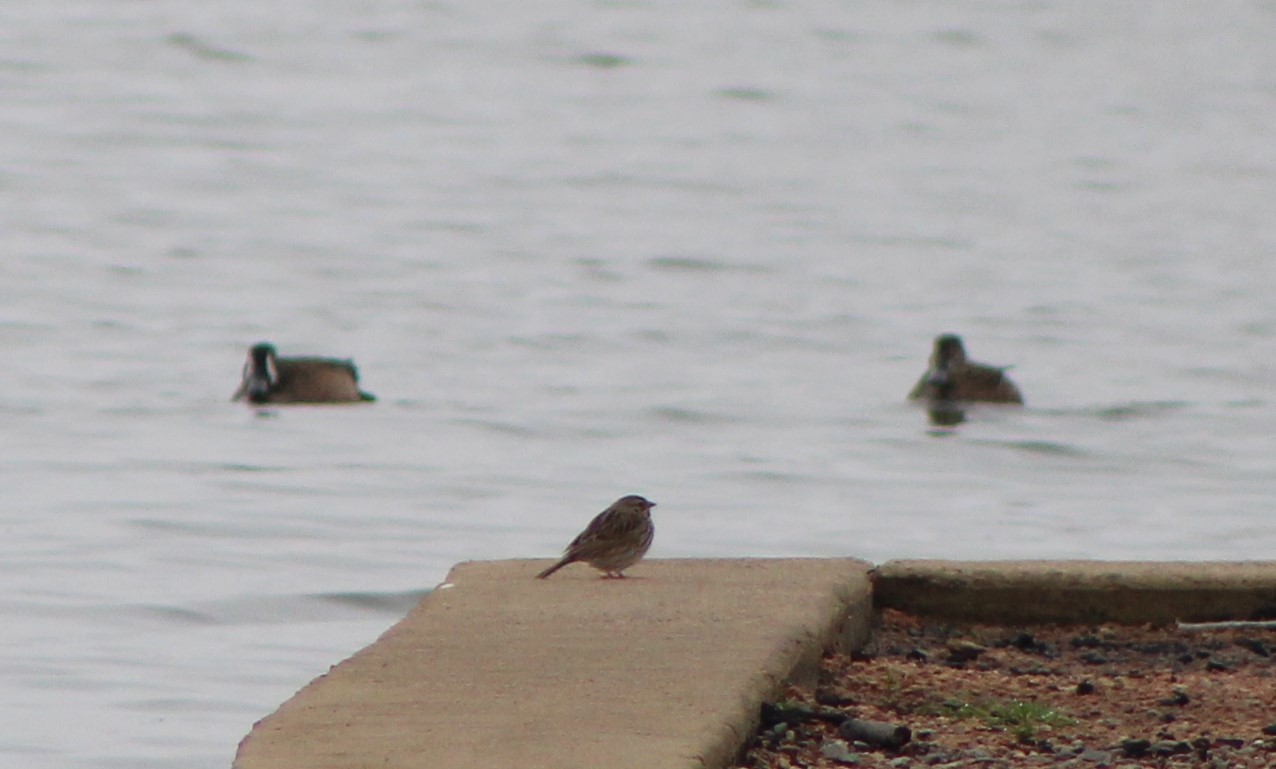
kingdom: Animalia
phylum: Chordata
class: Aves
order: Passeriformes
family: Passerellidae
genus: Passerculus
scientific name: Passerculus sandwichensis
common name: Savannah sparrow
